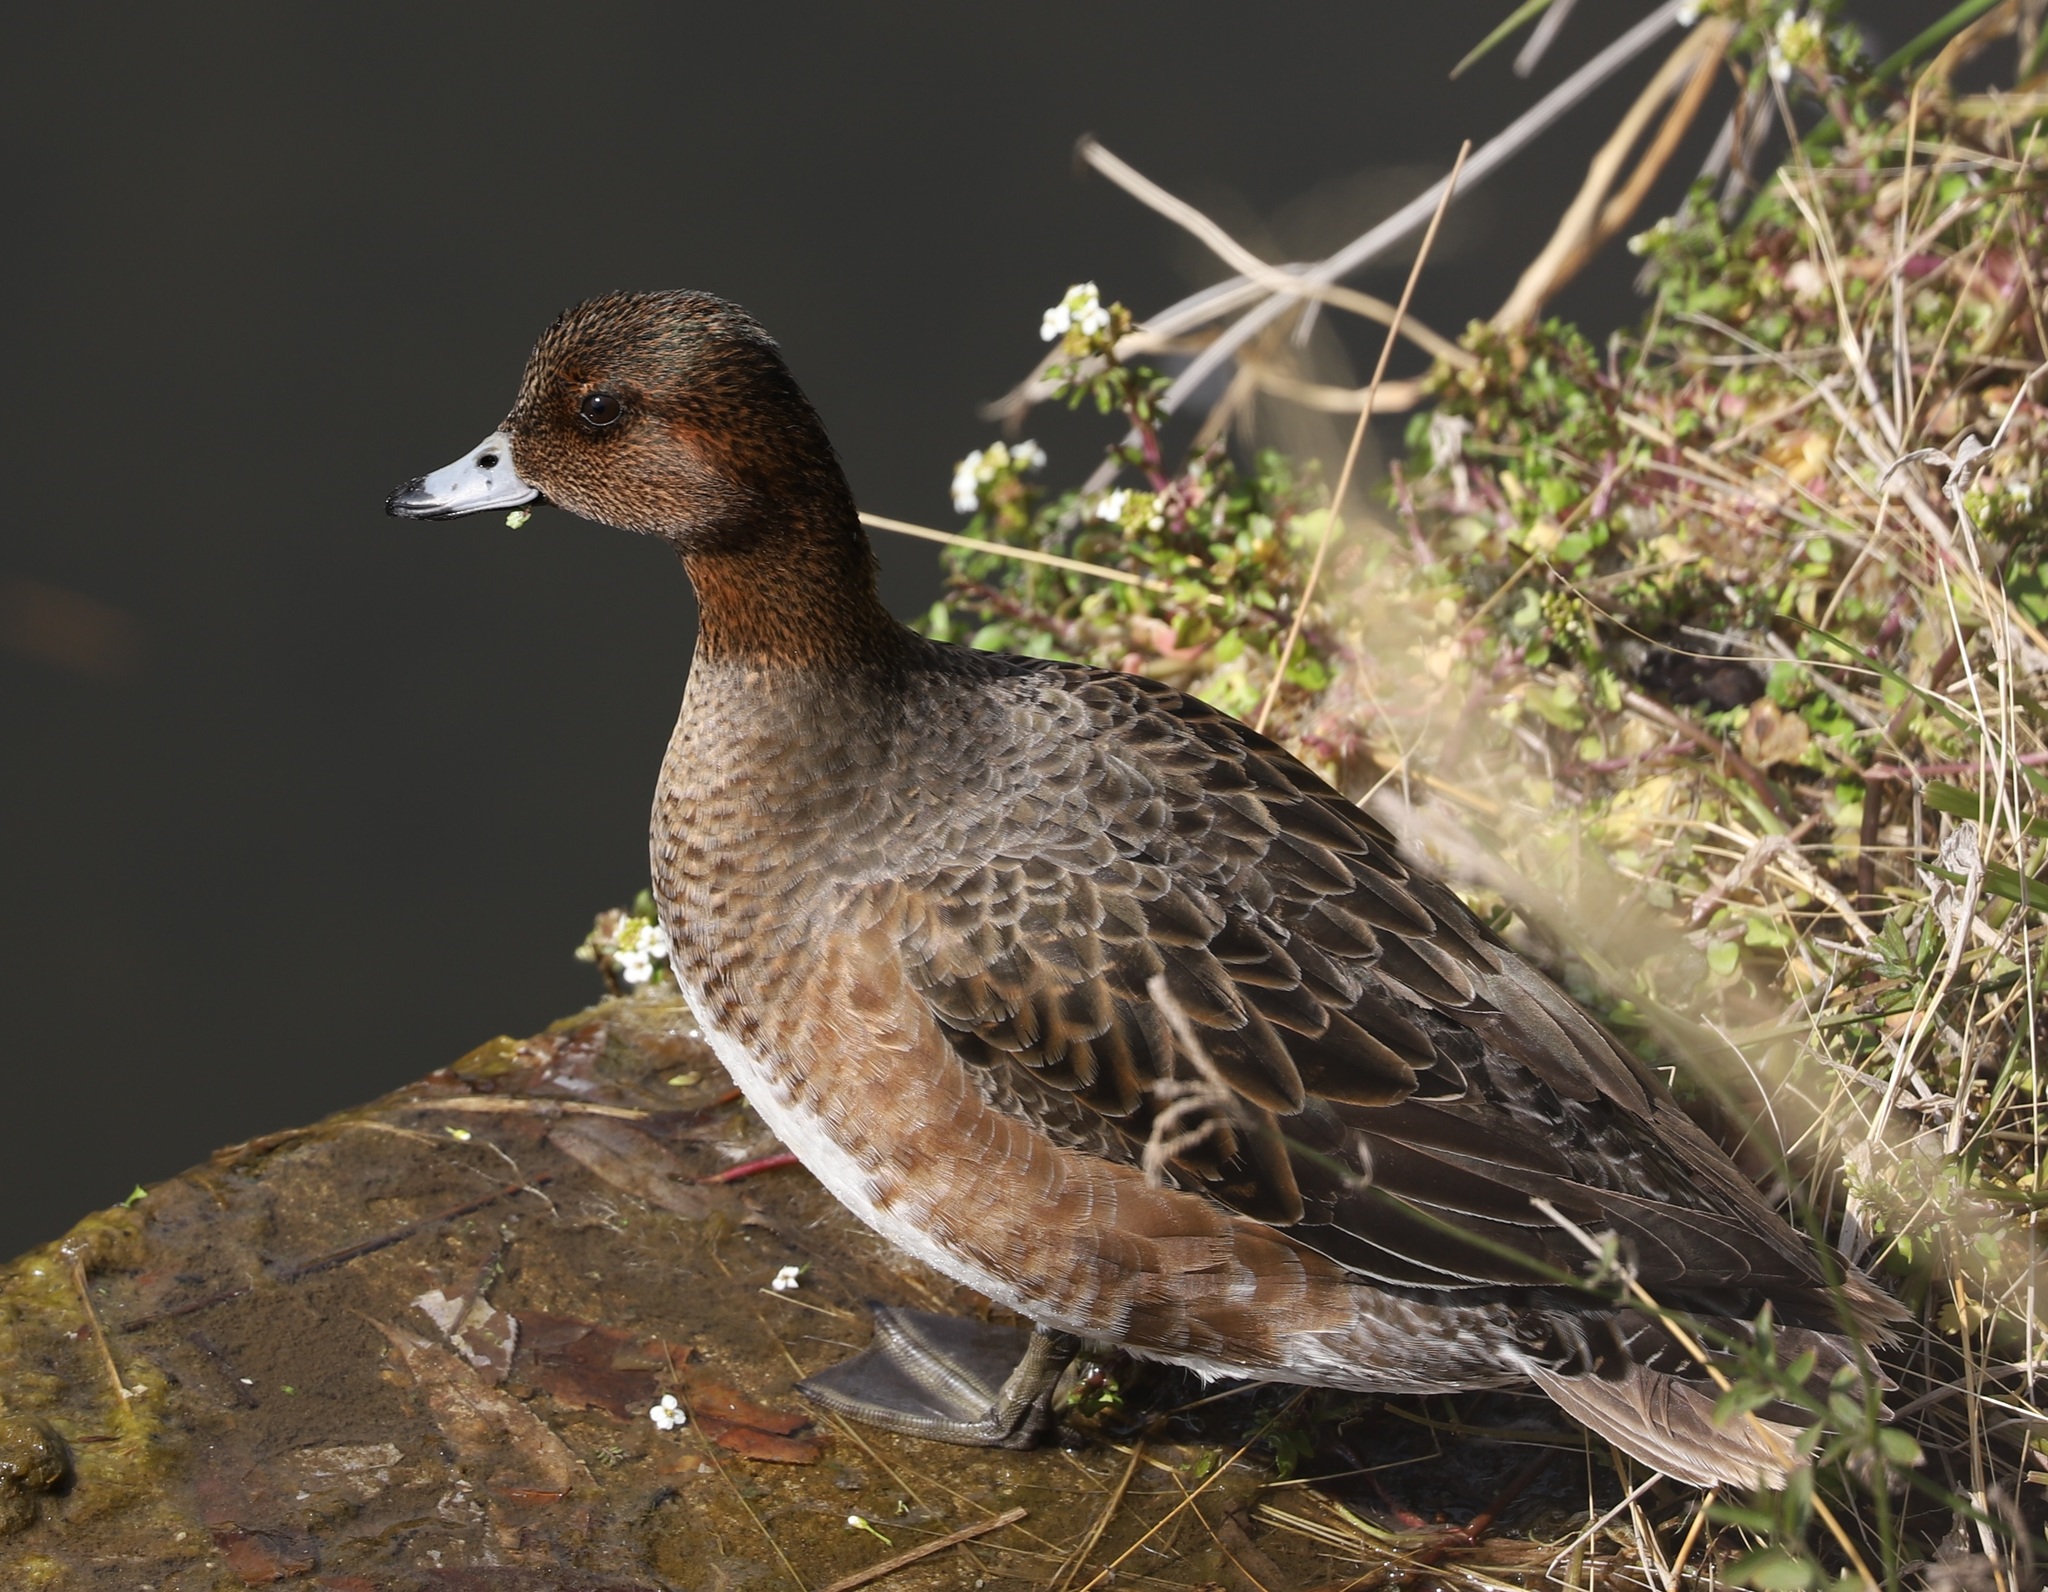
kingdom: Animalia
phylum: Chordata
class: Aves
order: Anseriformes
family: Anatidae
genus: Mareca
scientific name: Mareca penelope
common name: Eurasian wigeon
